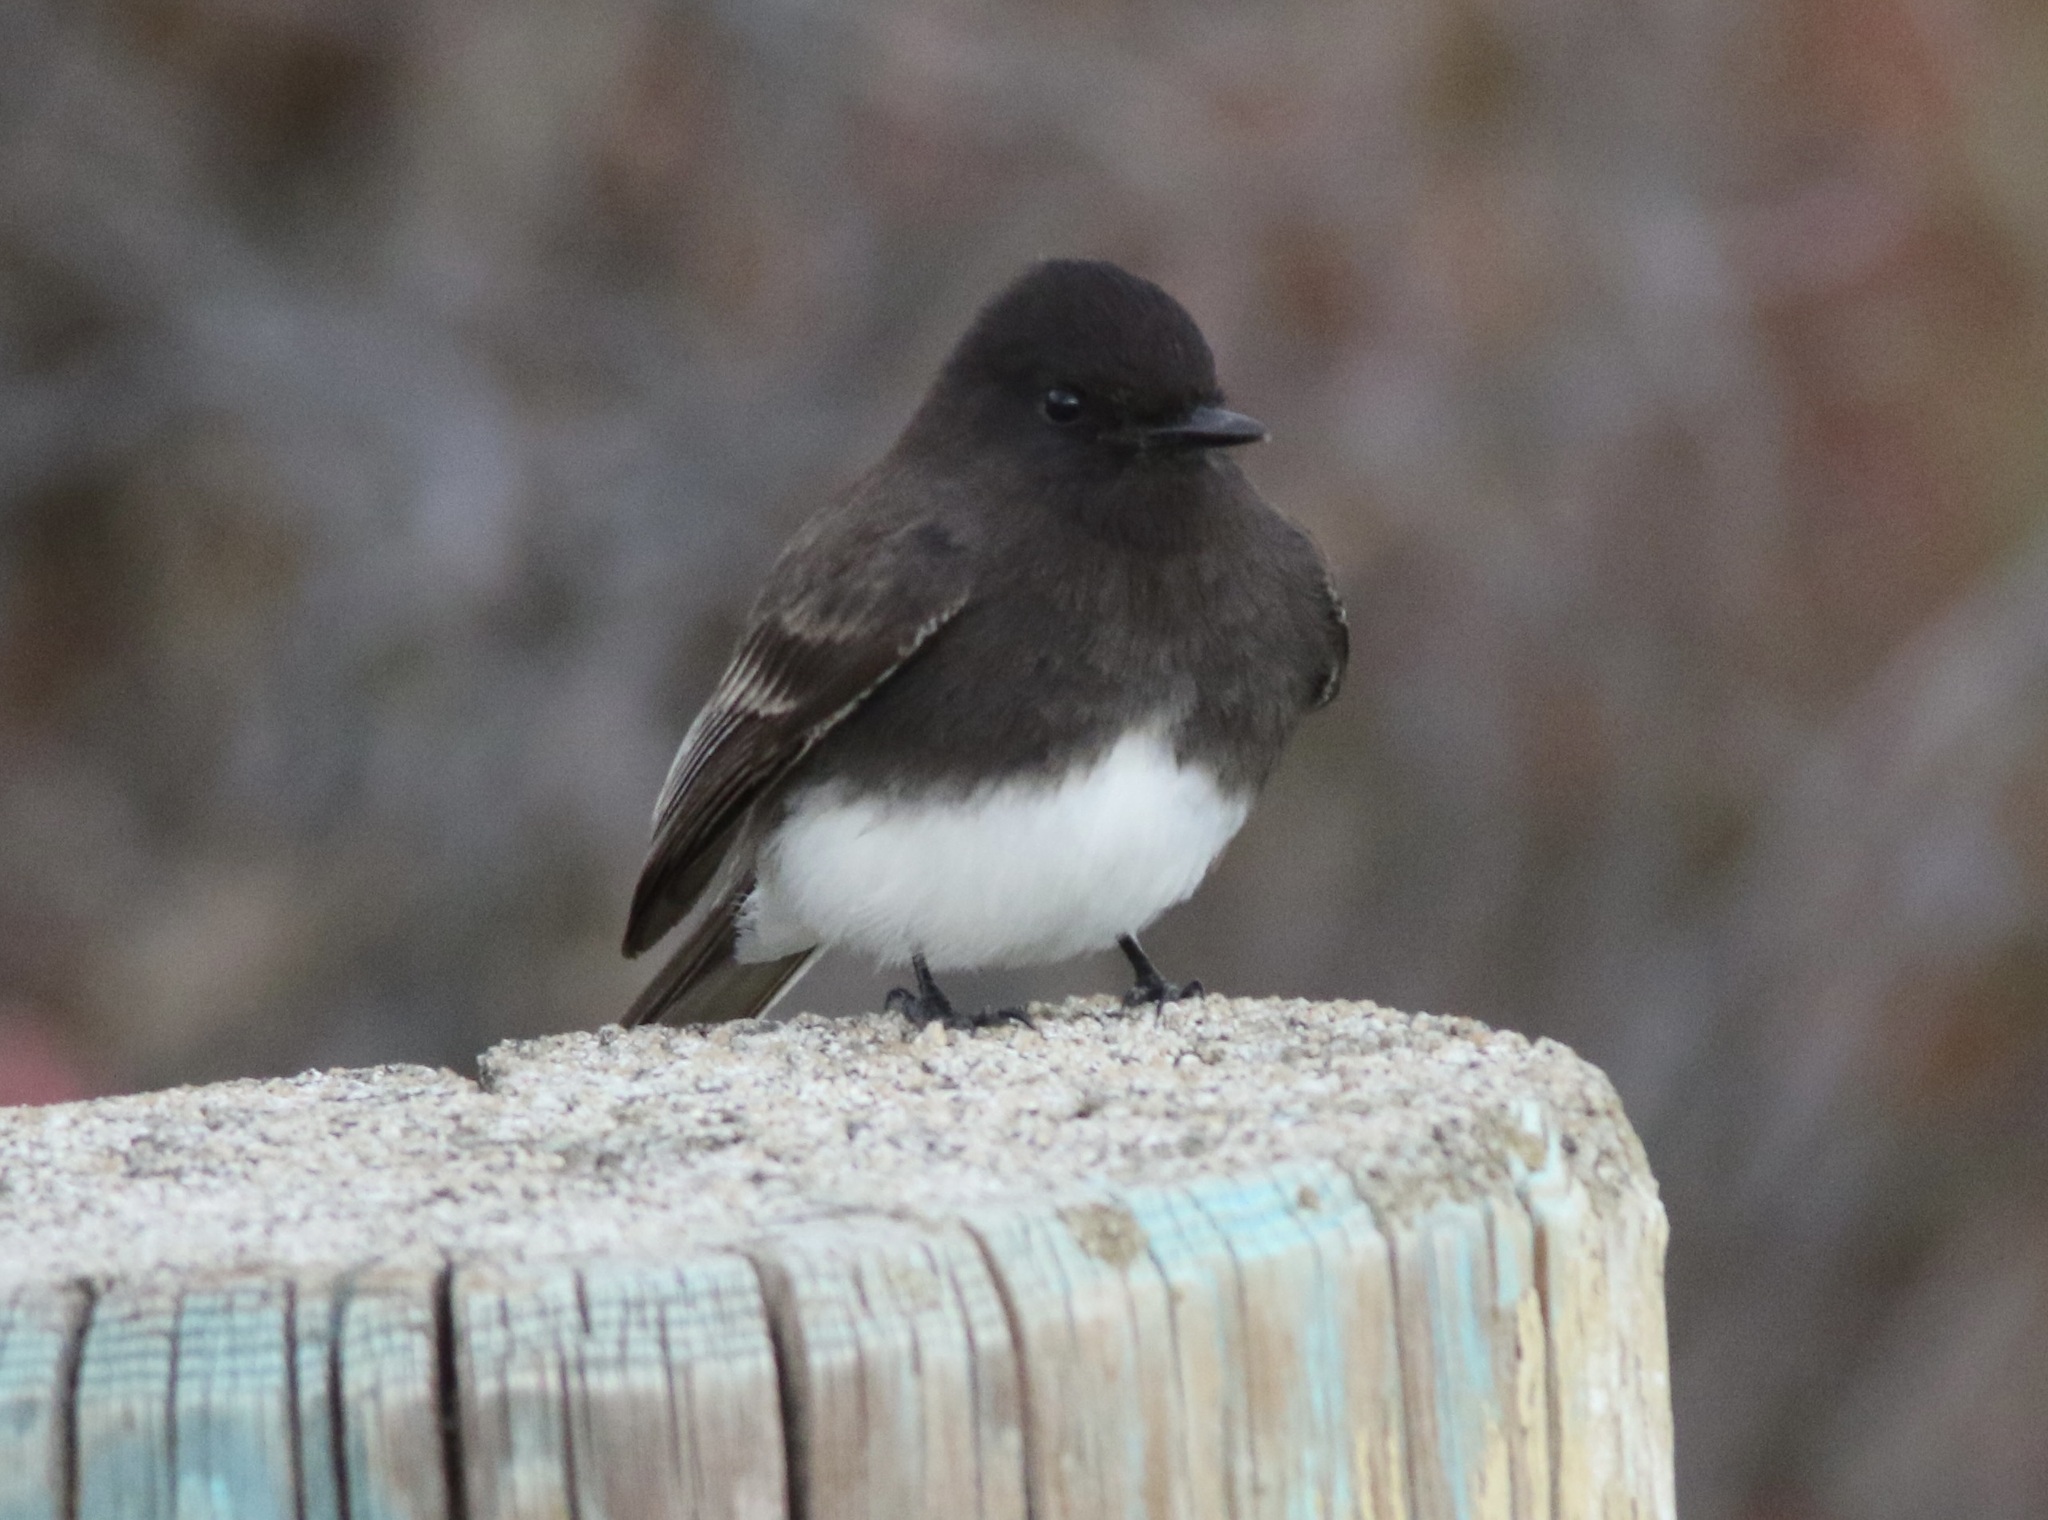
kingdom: Animalia
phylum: Chordata
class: Aves
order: Passeriformes
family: Tyrannidae
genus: Sayornis
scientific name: Sayornis nigricans
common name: Black phoebe
